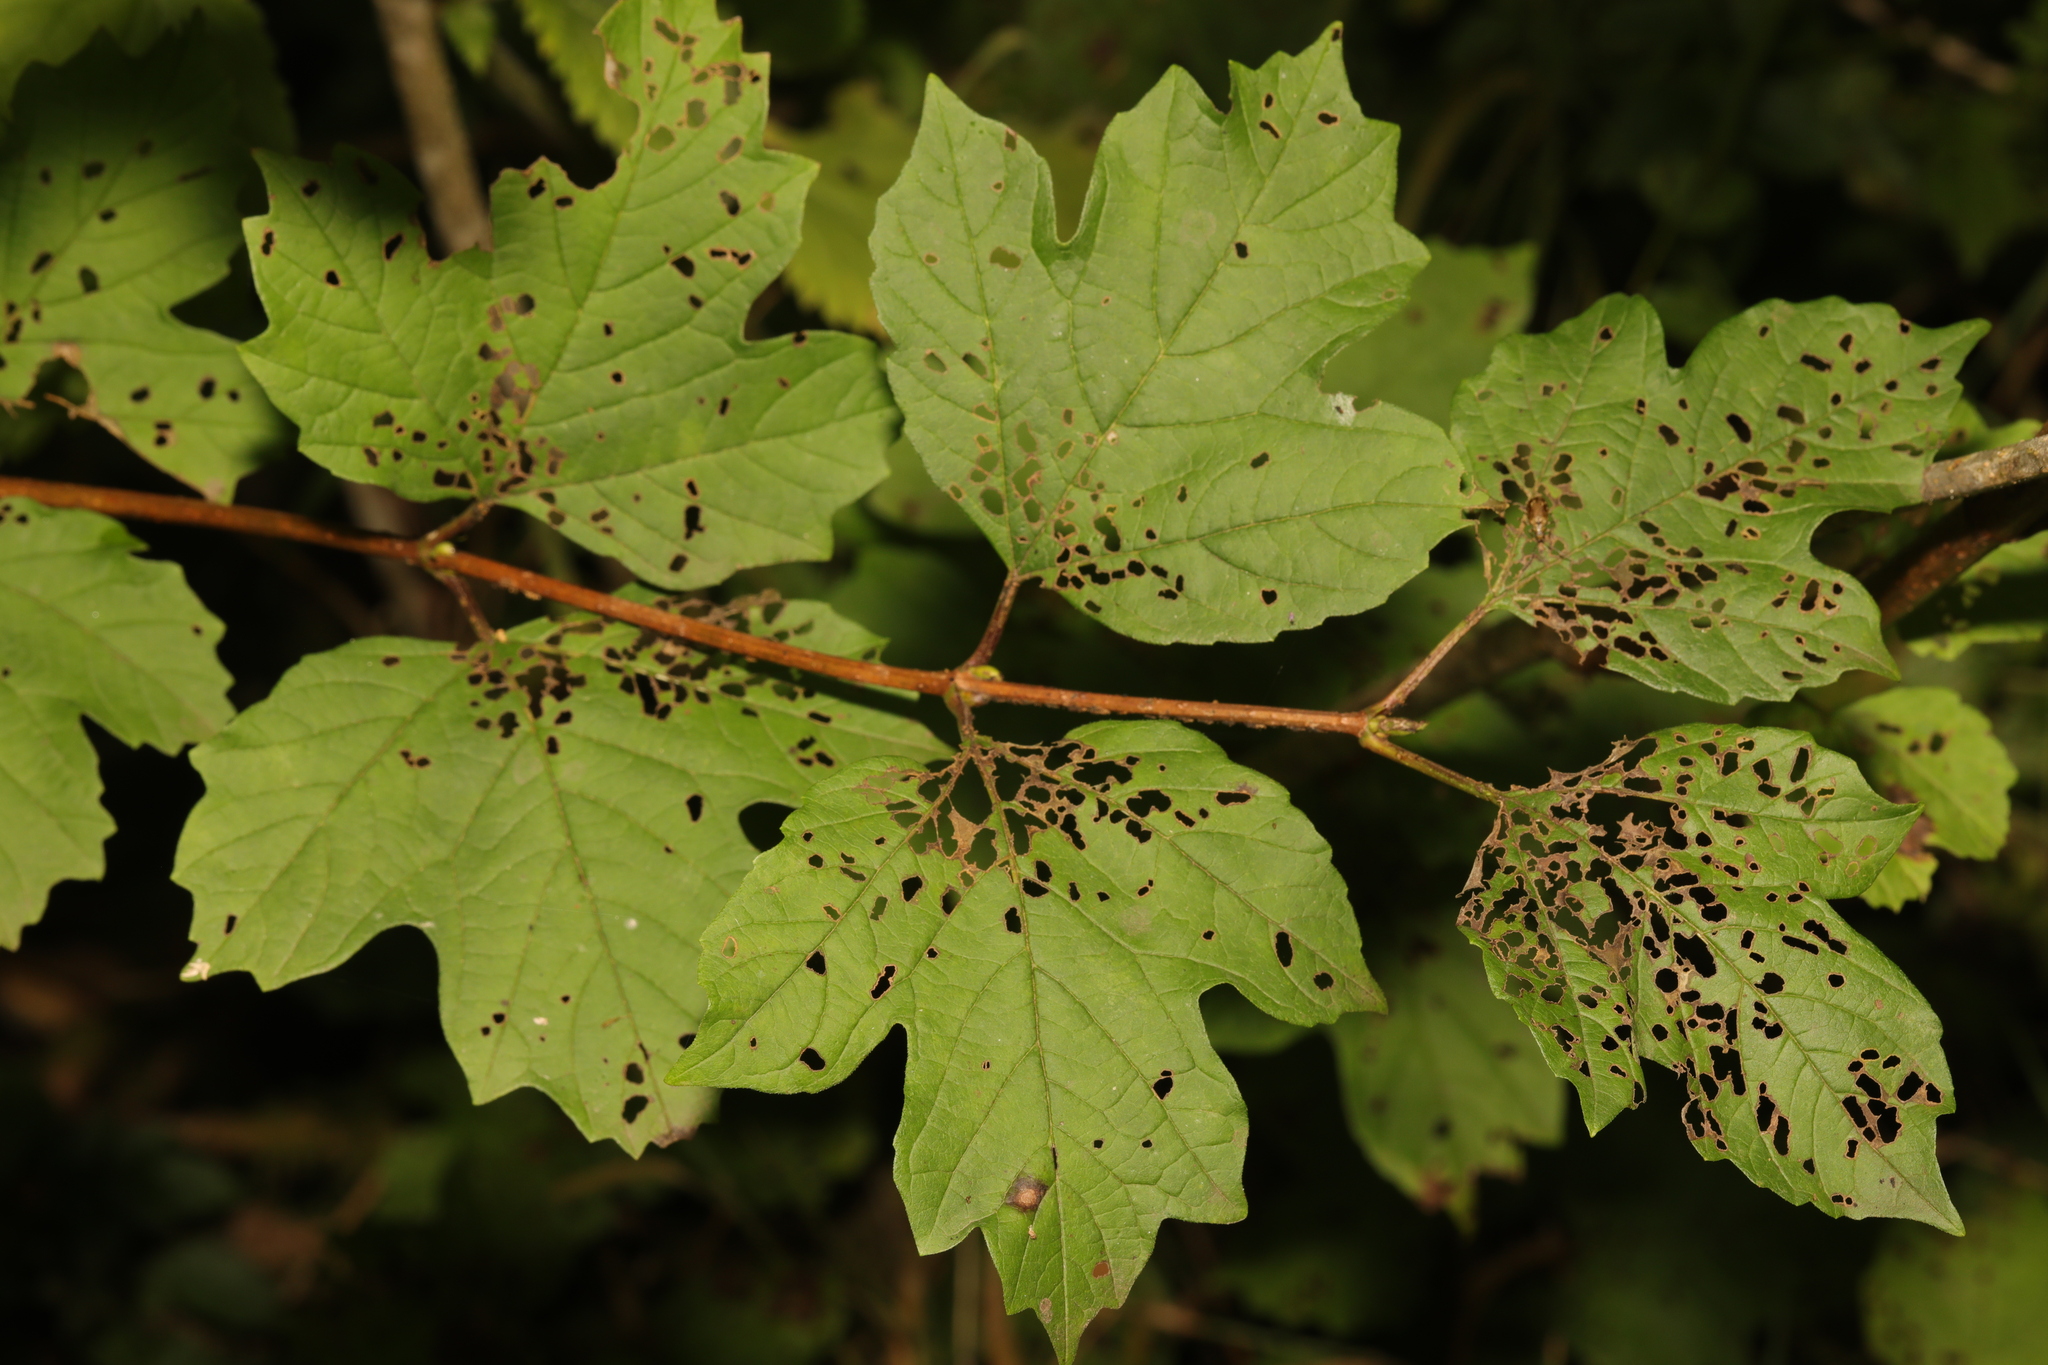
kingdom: Plantae
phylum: Tracheophyta
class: Magnoliopsida
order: Dipsacales
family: Viburnaceae
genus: Viburnum
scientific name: Viburnum opulus
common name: Guelder-rose
